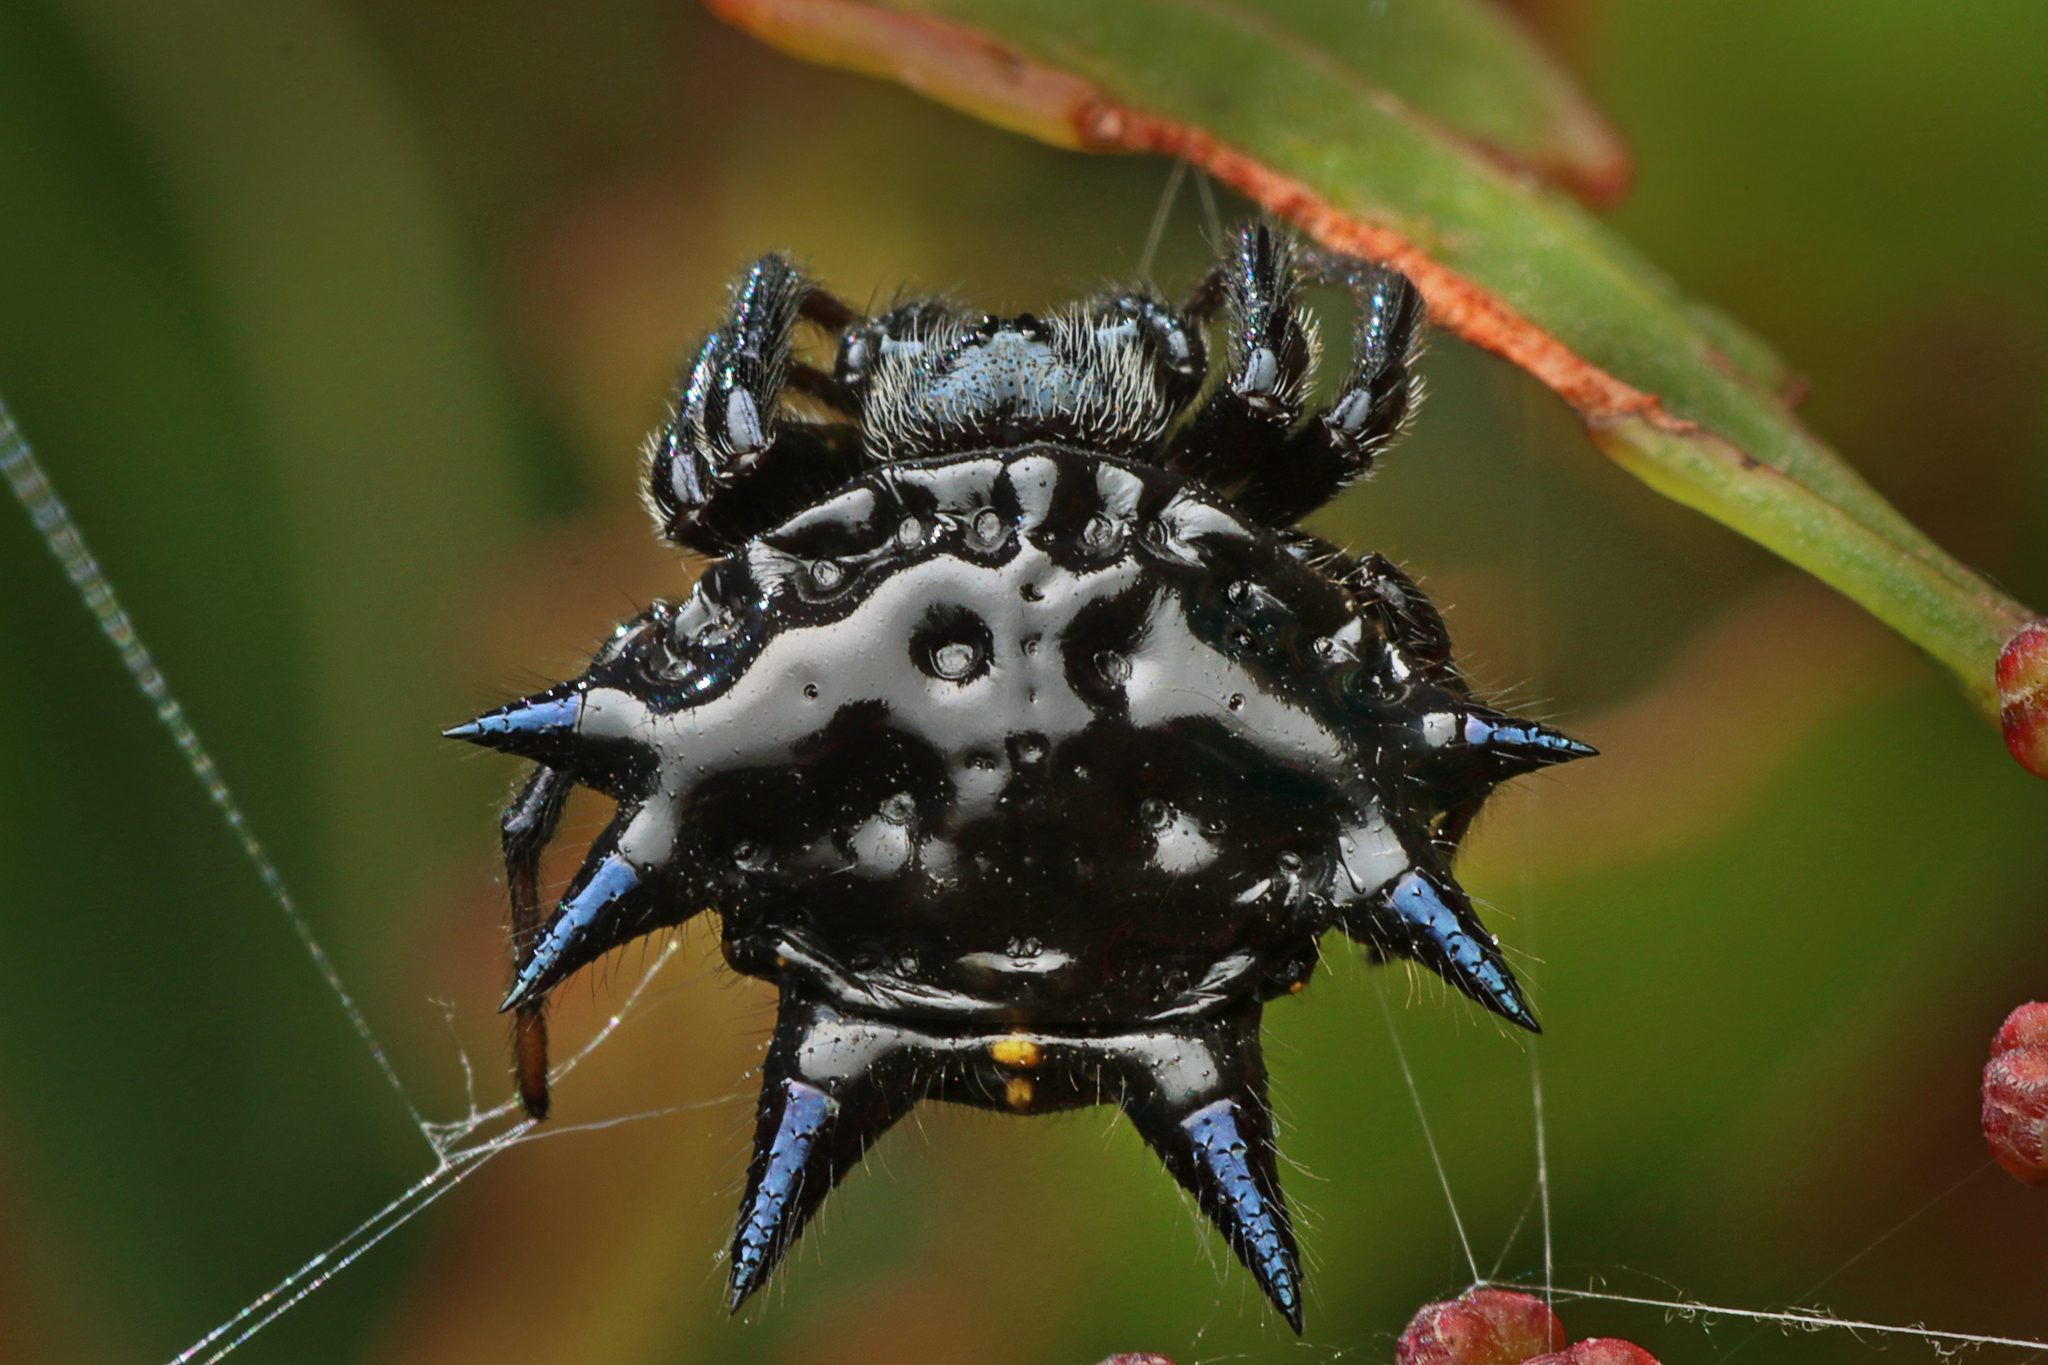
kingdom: Animalia
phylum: Arthropoda
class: Arachnida
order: Araneae
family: Araneidae
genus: Austracantha
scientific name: Austracantha minax
